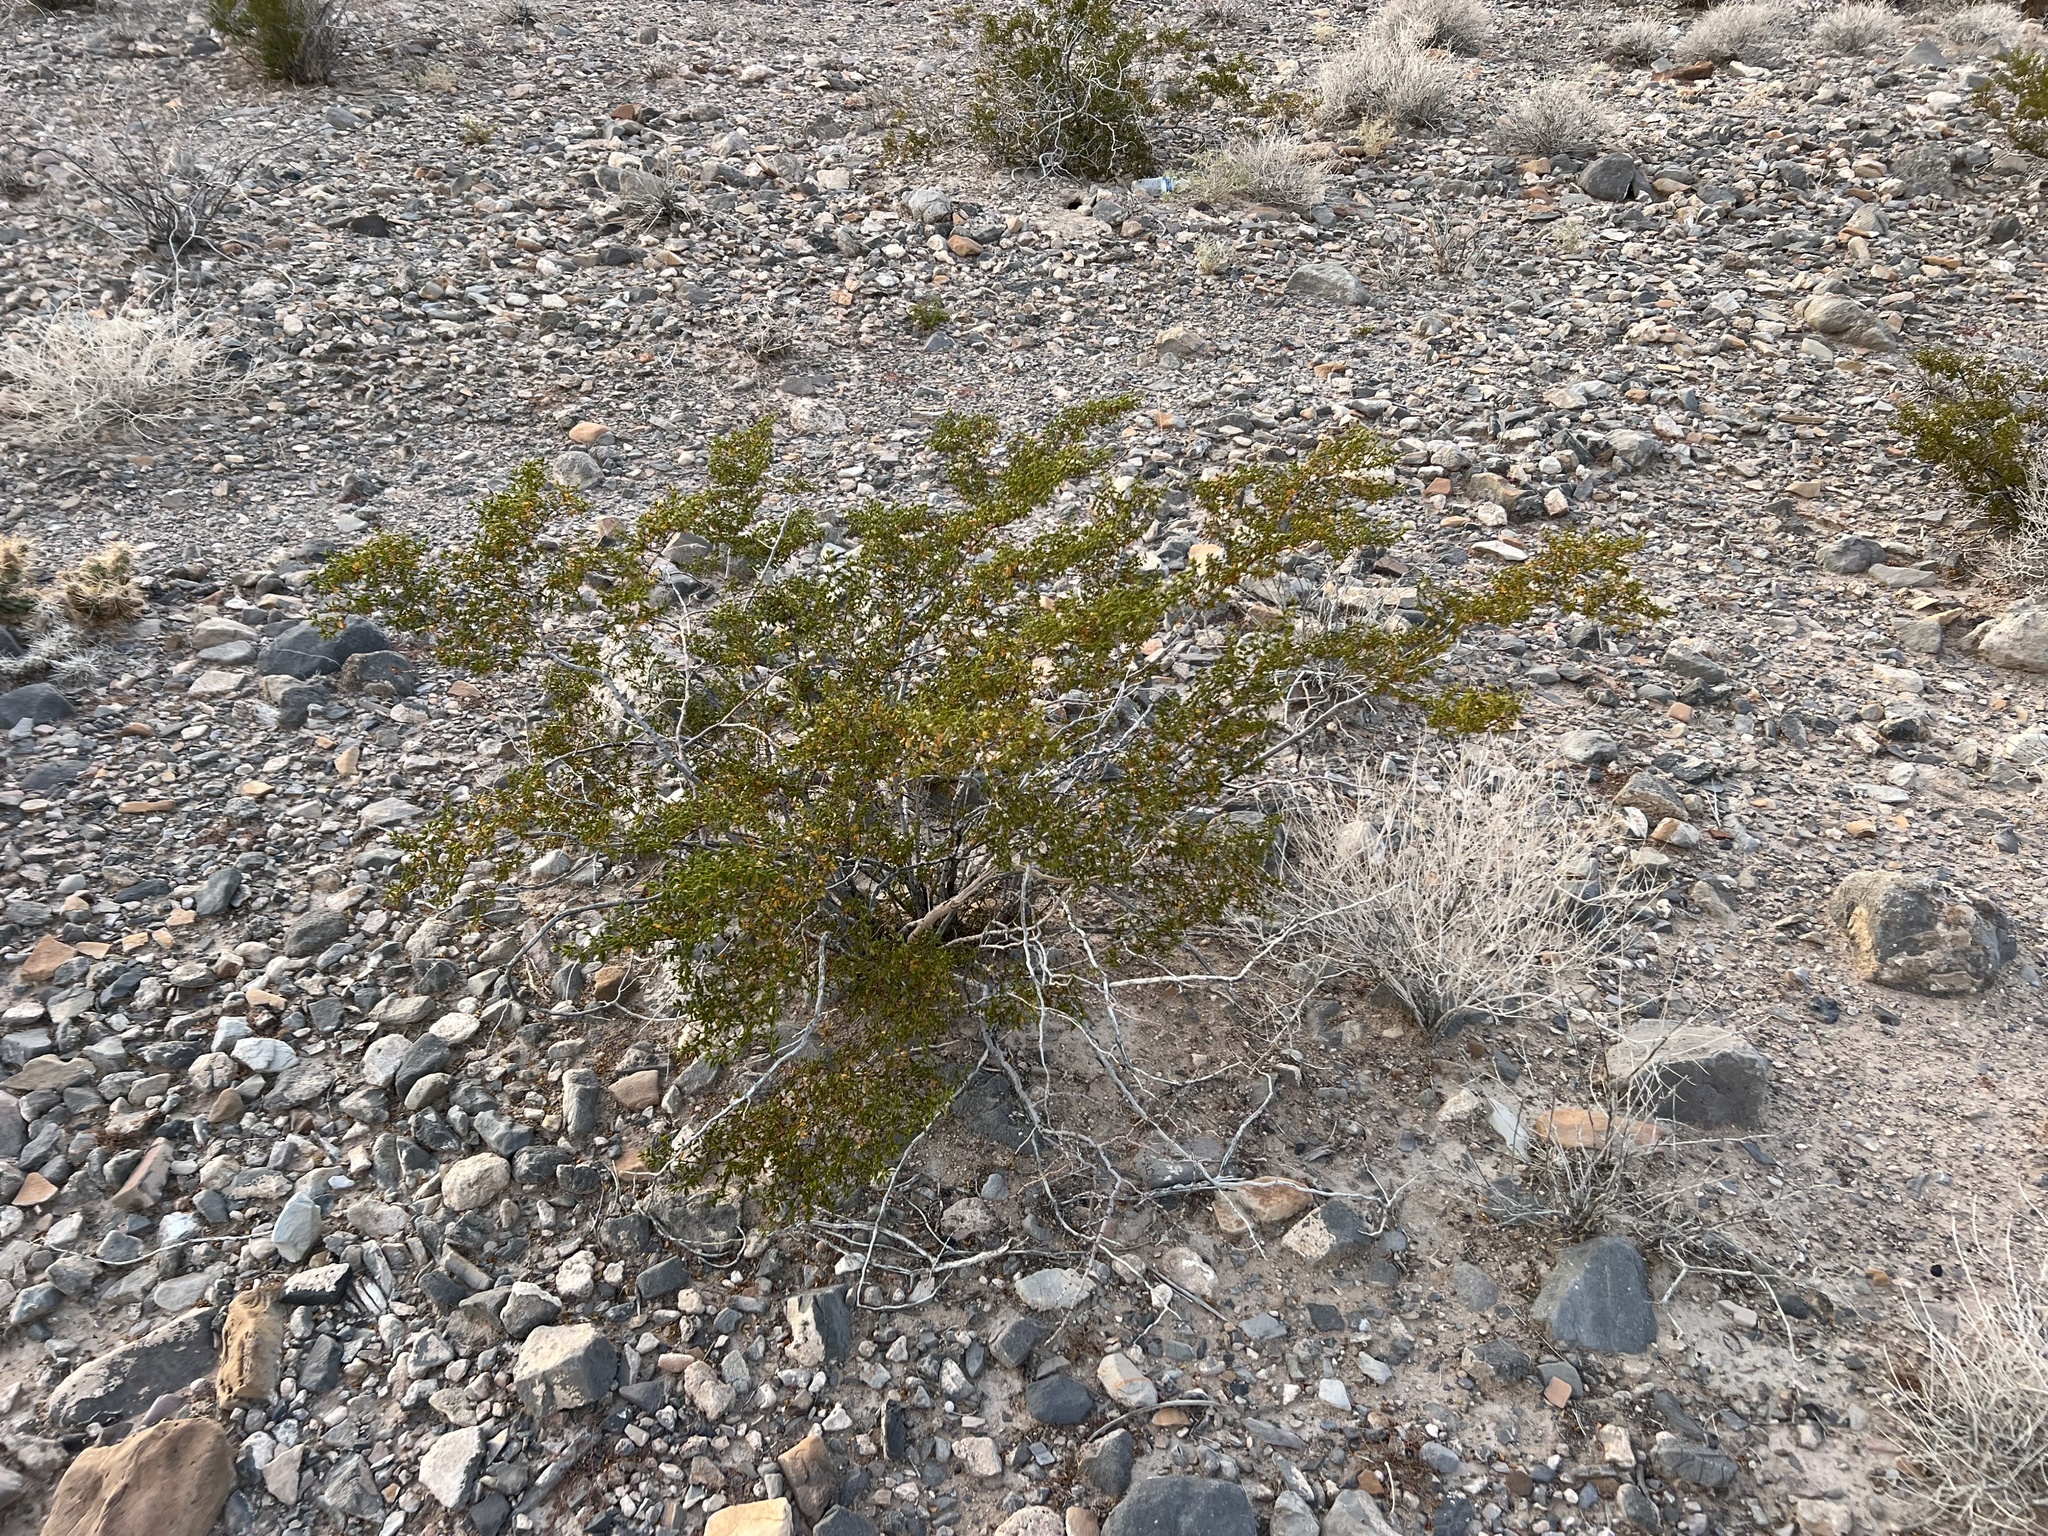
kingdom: Plantae
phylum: Tracheophyta
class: Magnoliopsida
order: Zygophyllales
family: Zygophyllaceae
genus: Larrea
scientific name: Larrea tridentata
